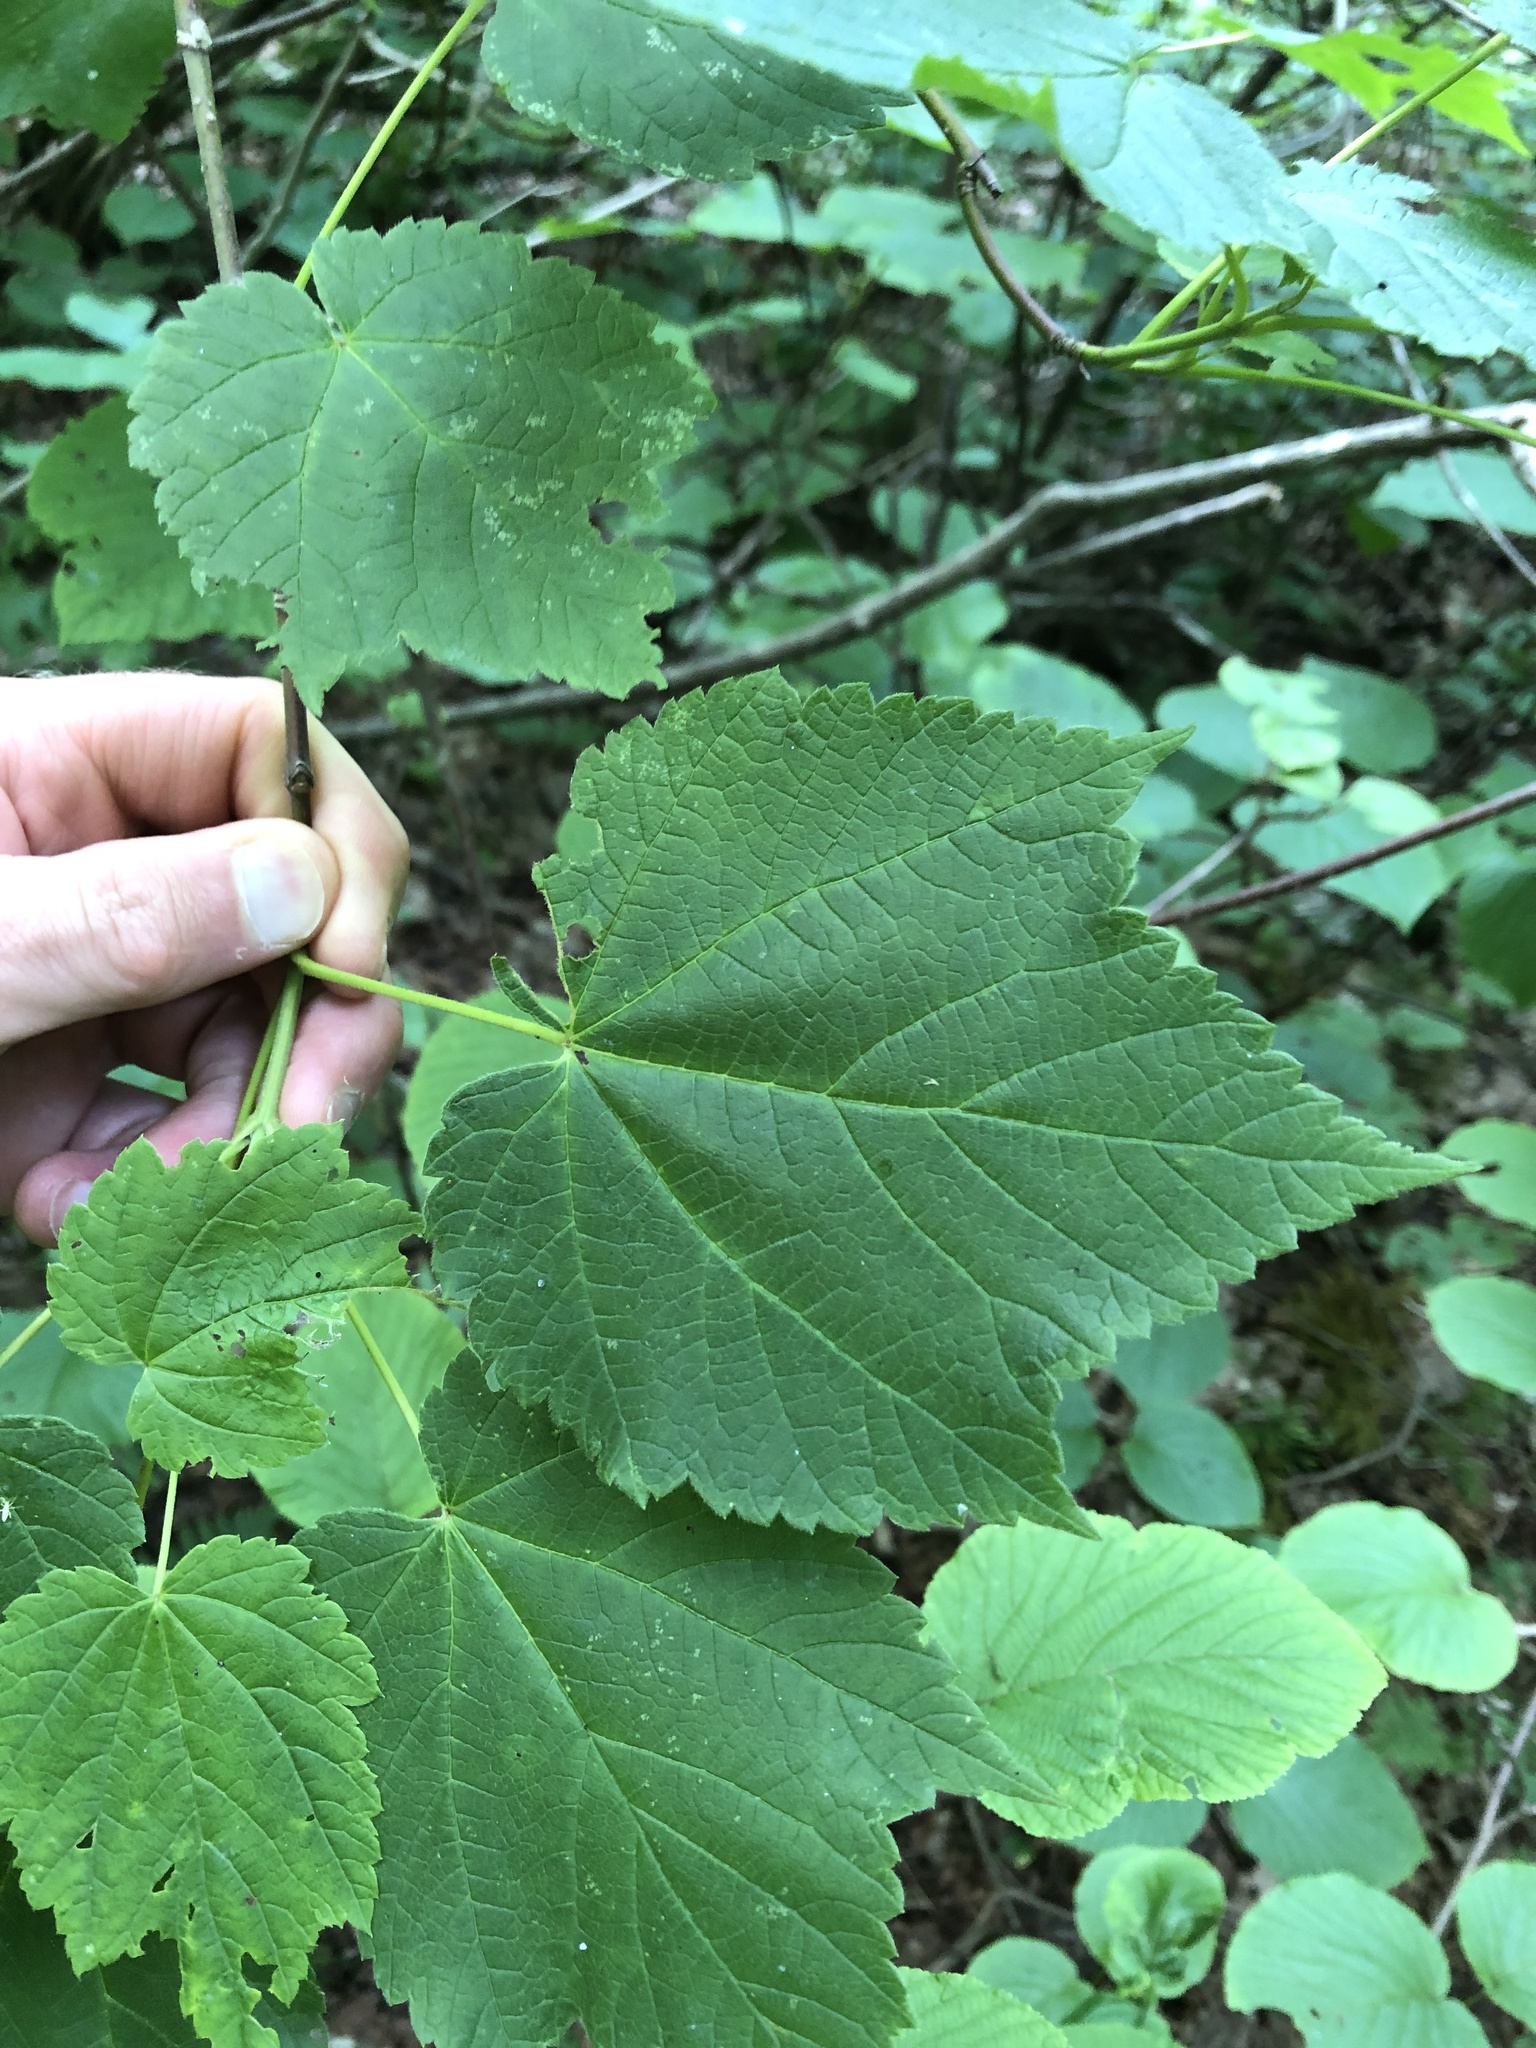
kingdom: Plantae
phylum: Tracheophyta
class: Magnoliopsida
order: Sapindales
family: Sapindaceae
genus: Acer
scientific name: Acer spicatum
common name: Mountain maple
